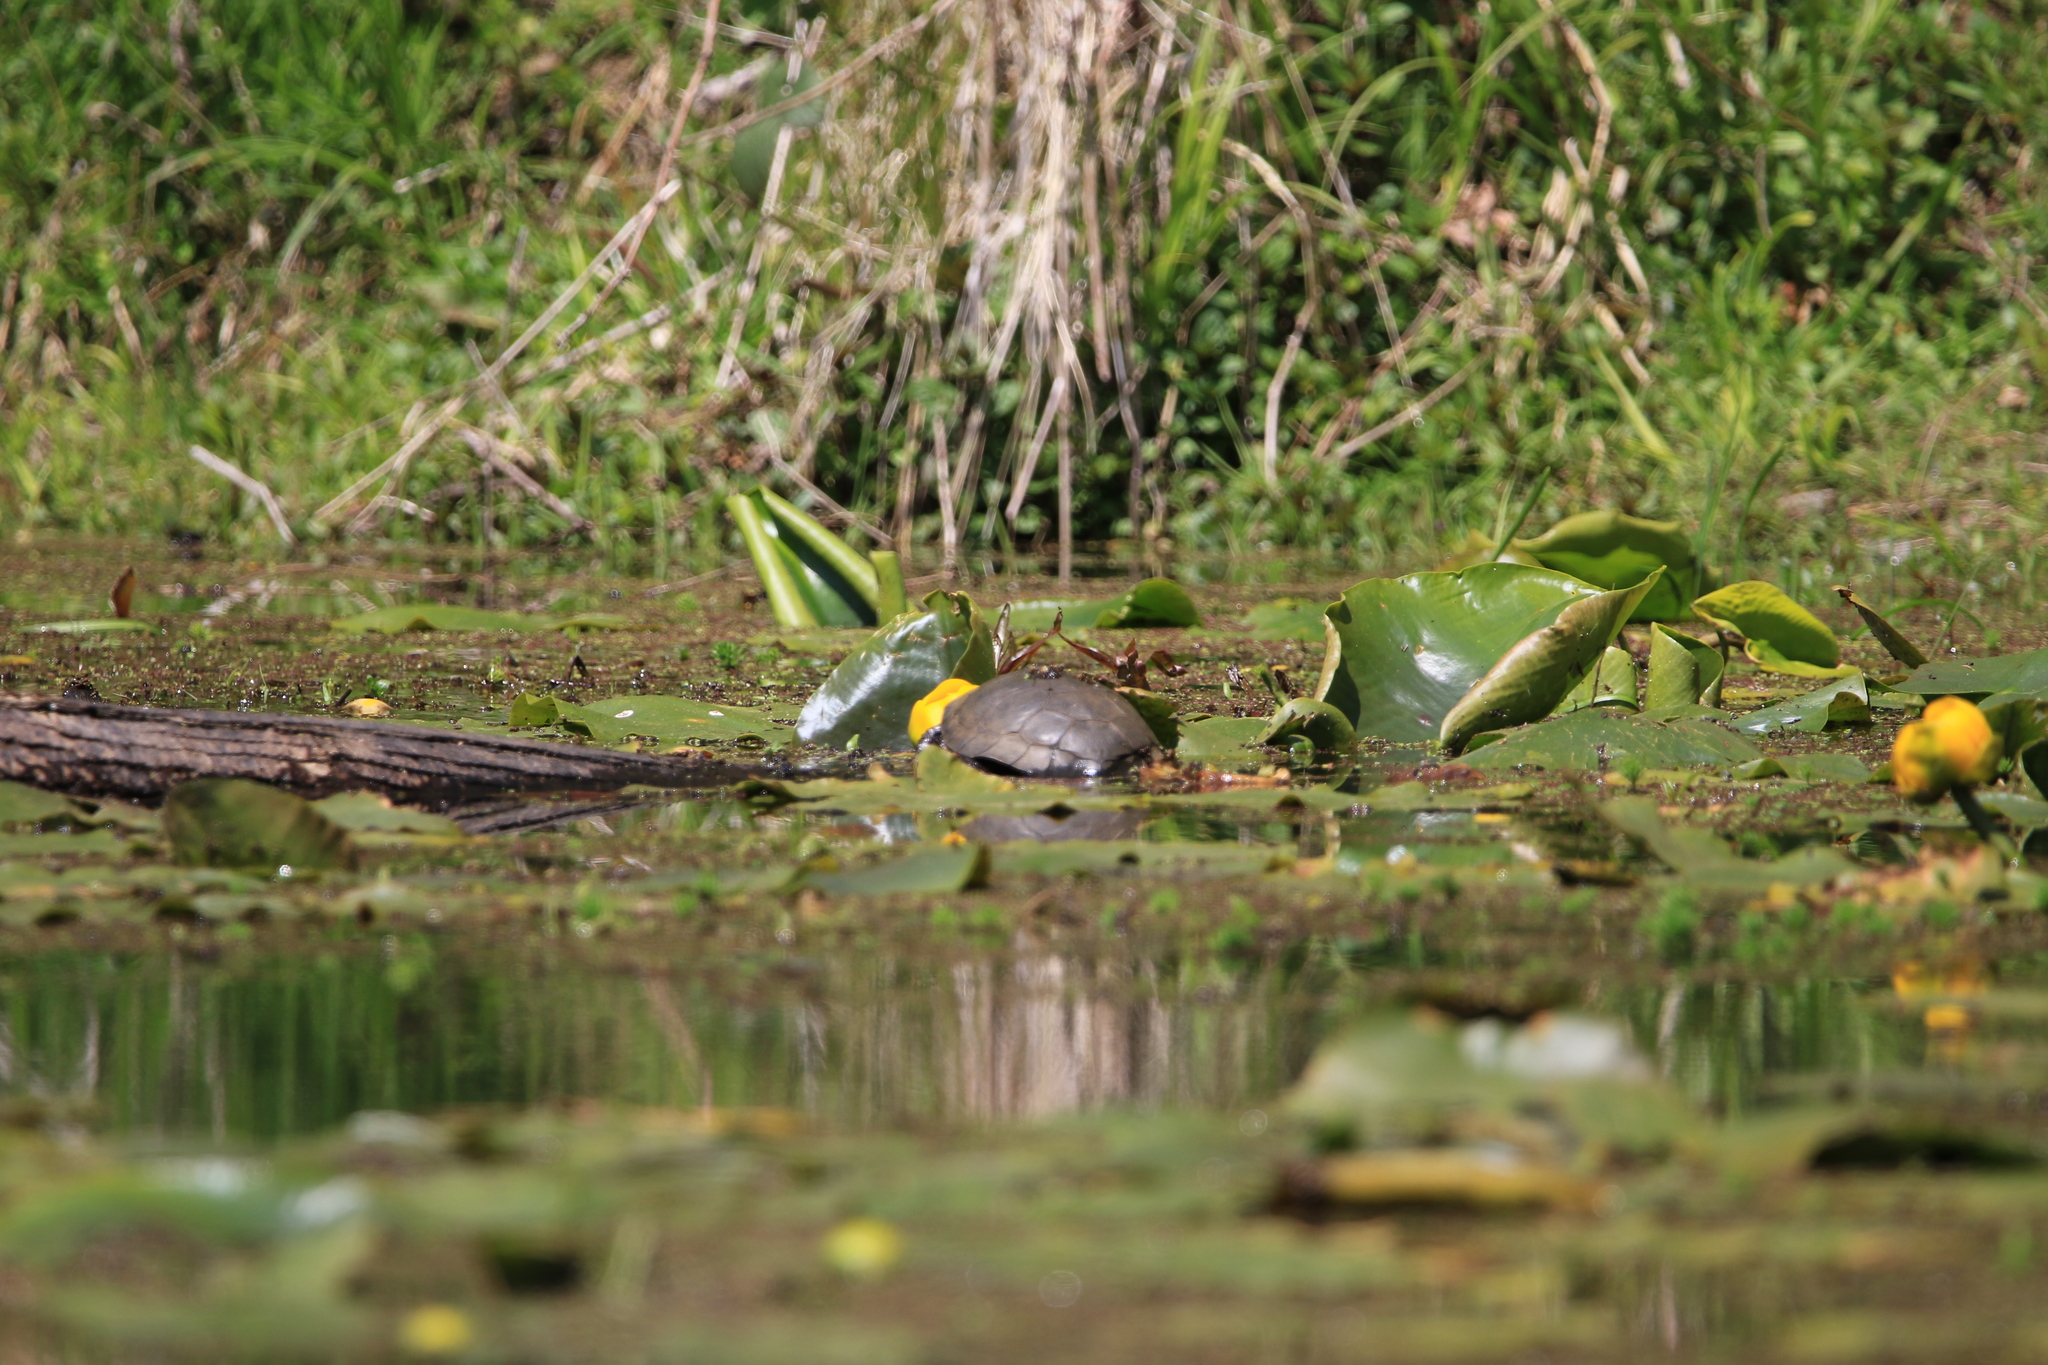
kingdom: Animalia
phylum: Chordata
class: Testudines
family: Emydidae
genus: Actinemys
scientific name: Actinemys marmorata
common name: Western pond turtle
